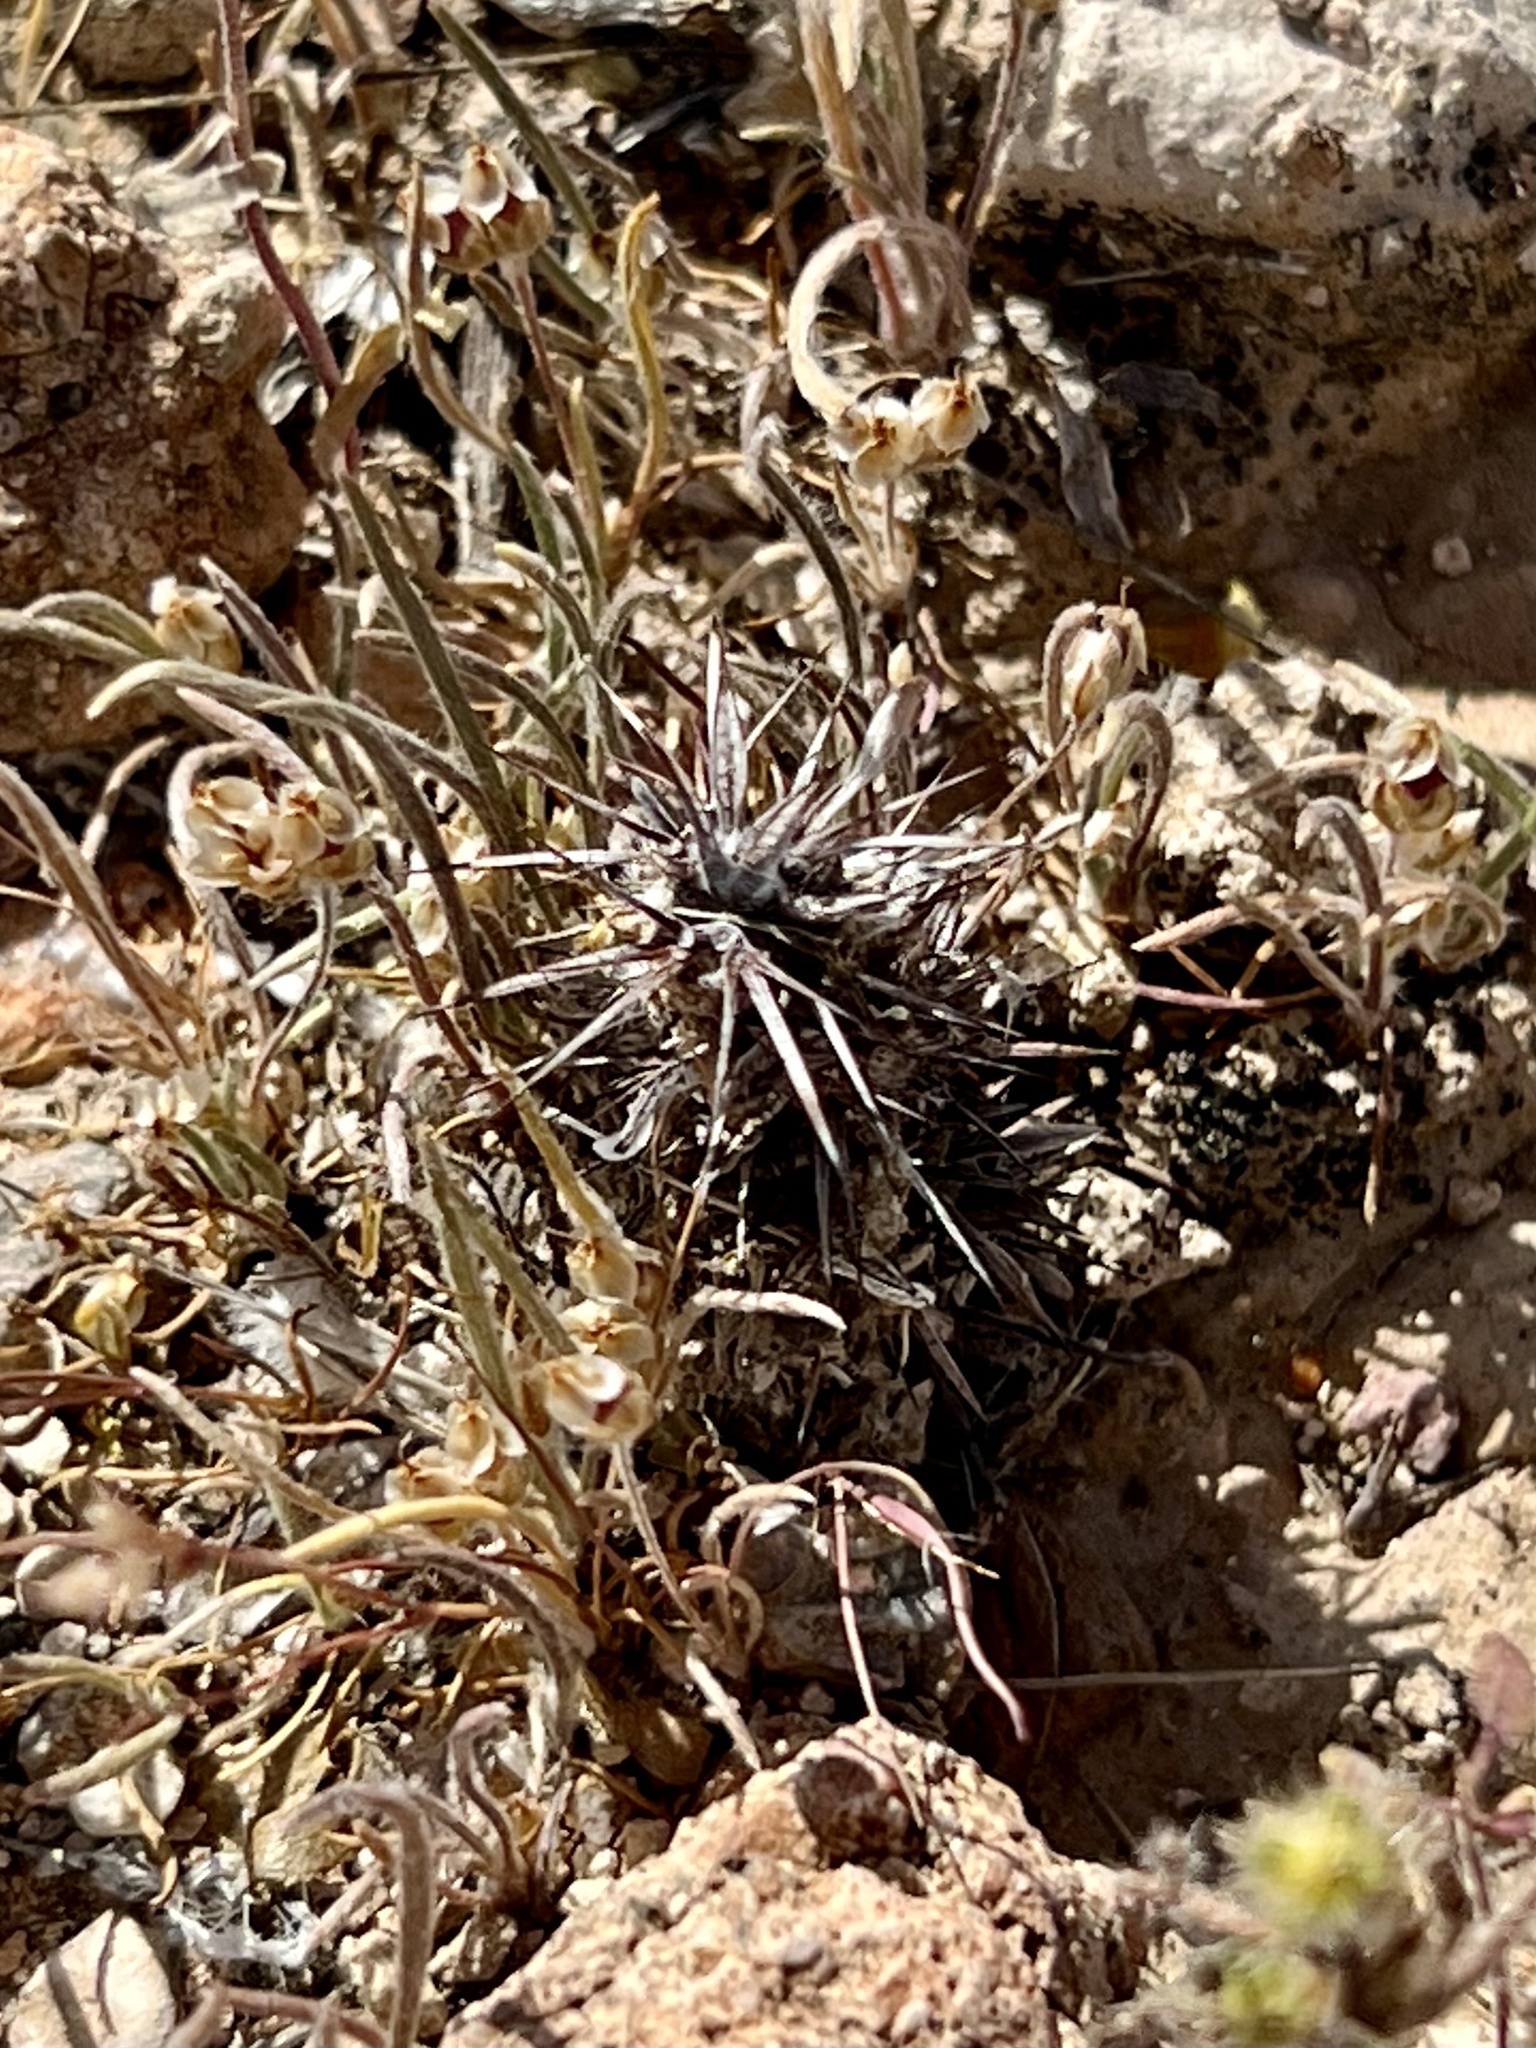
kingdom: Plantae
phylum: Tracheophyta
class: Magnoliopsida
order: Caryophyllales
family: Polygonaceae
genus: Chorizanthe
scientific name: Chorizanthe rigida
